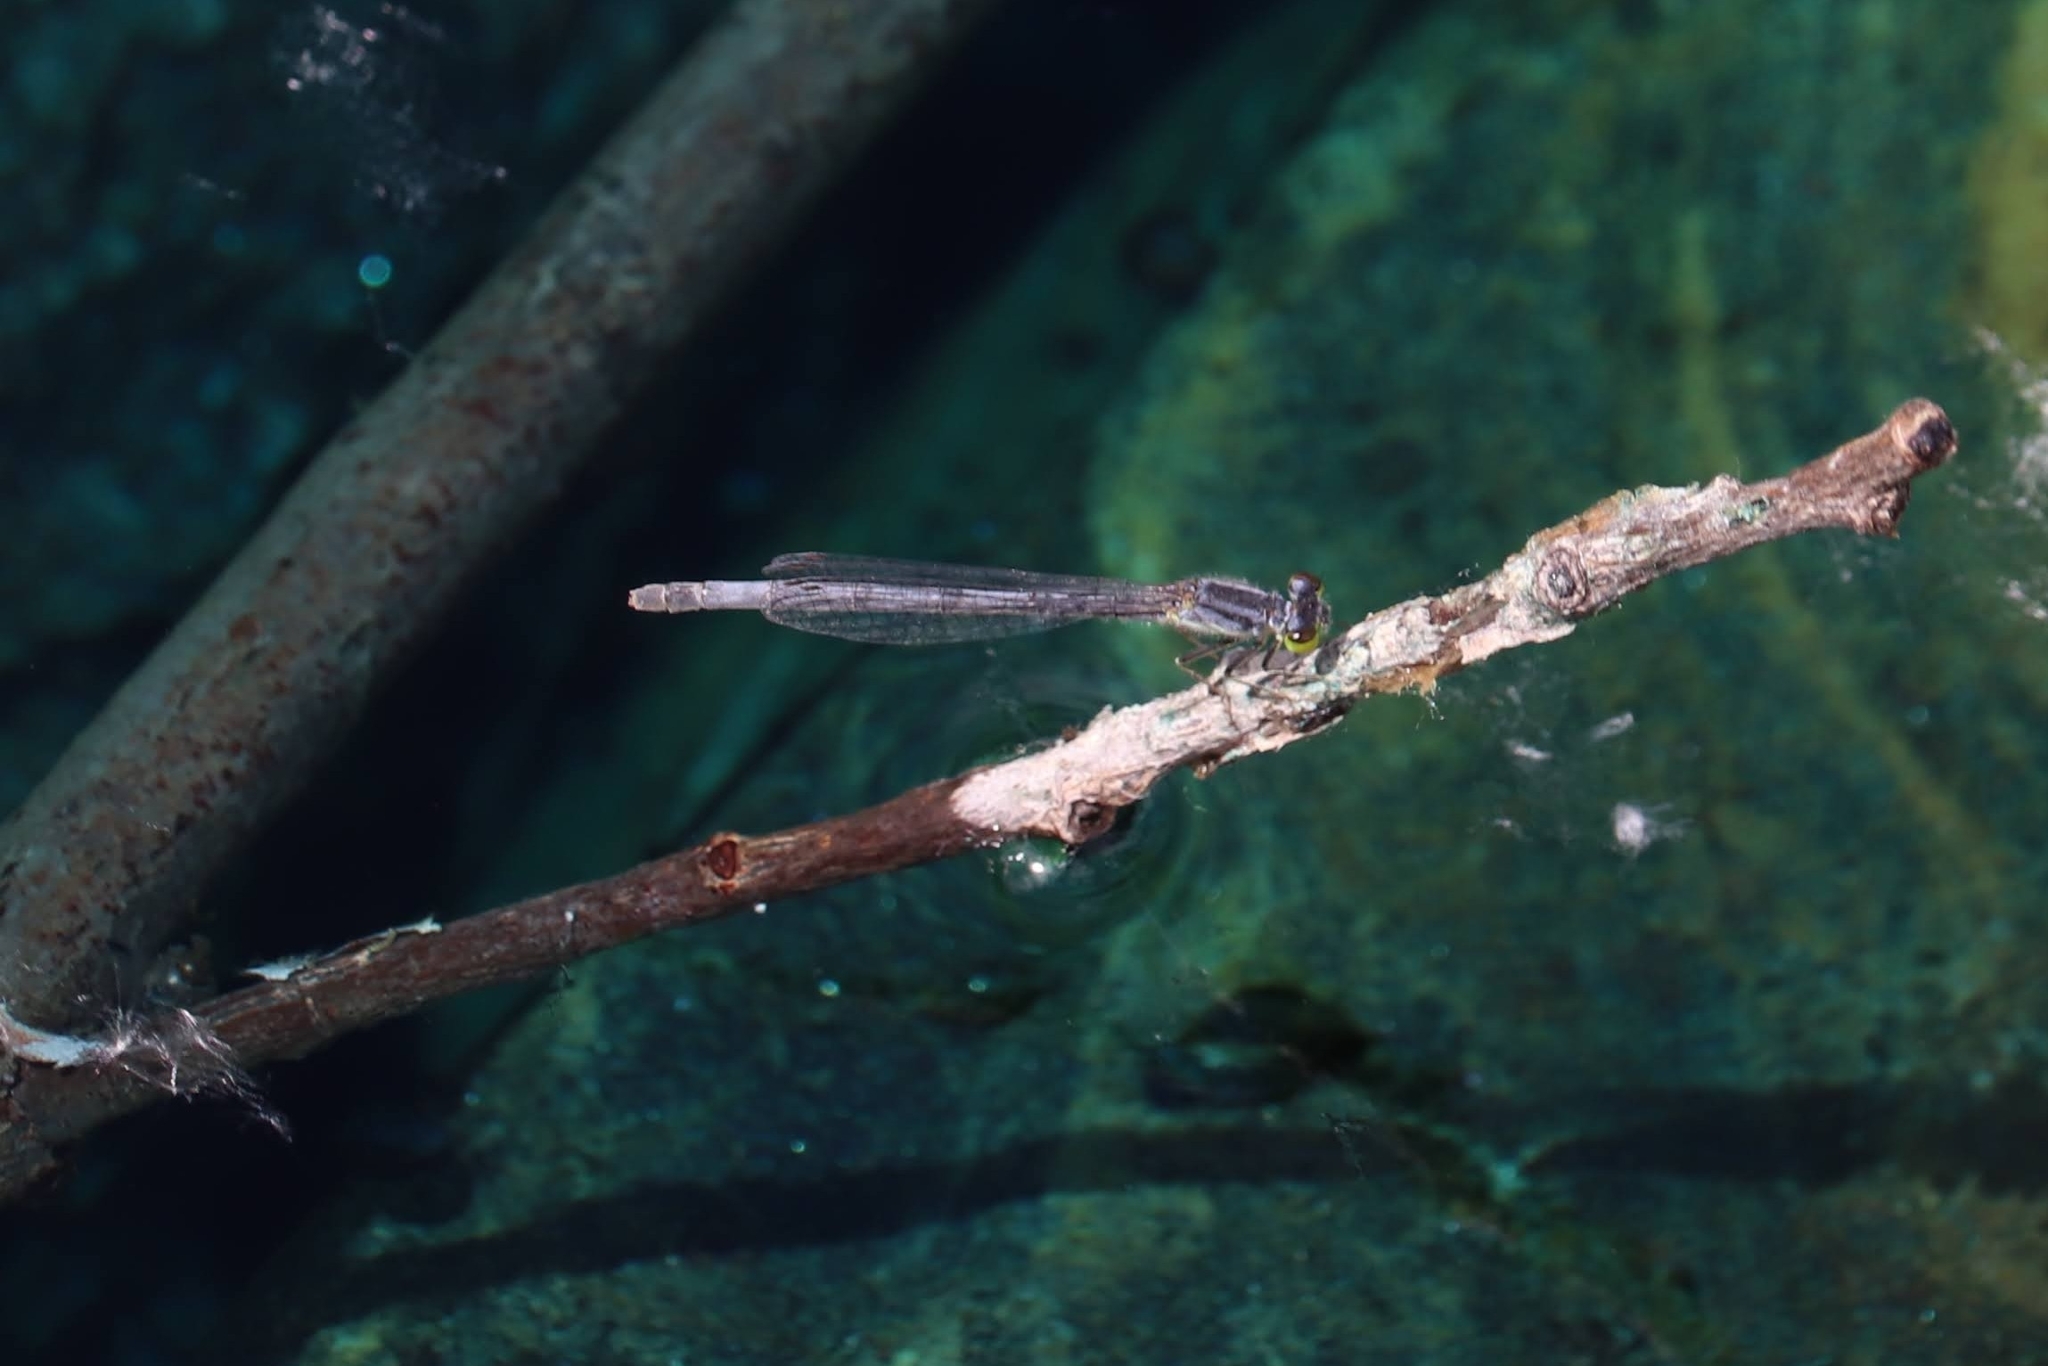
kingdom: Animalia
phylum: Arthropoda
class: Insecta
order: Odonata
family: Coenagrionidae
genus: Ischnura
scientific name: Ischnura verticalis
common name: Eastern forktail
